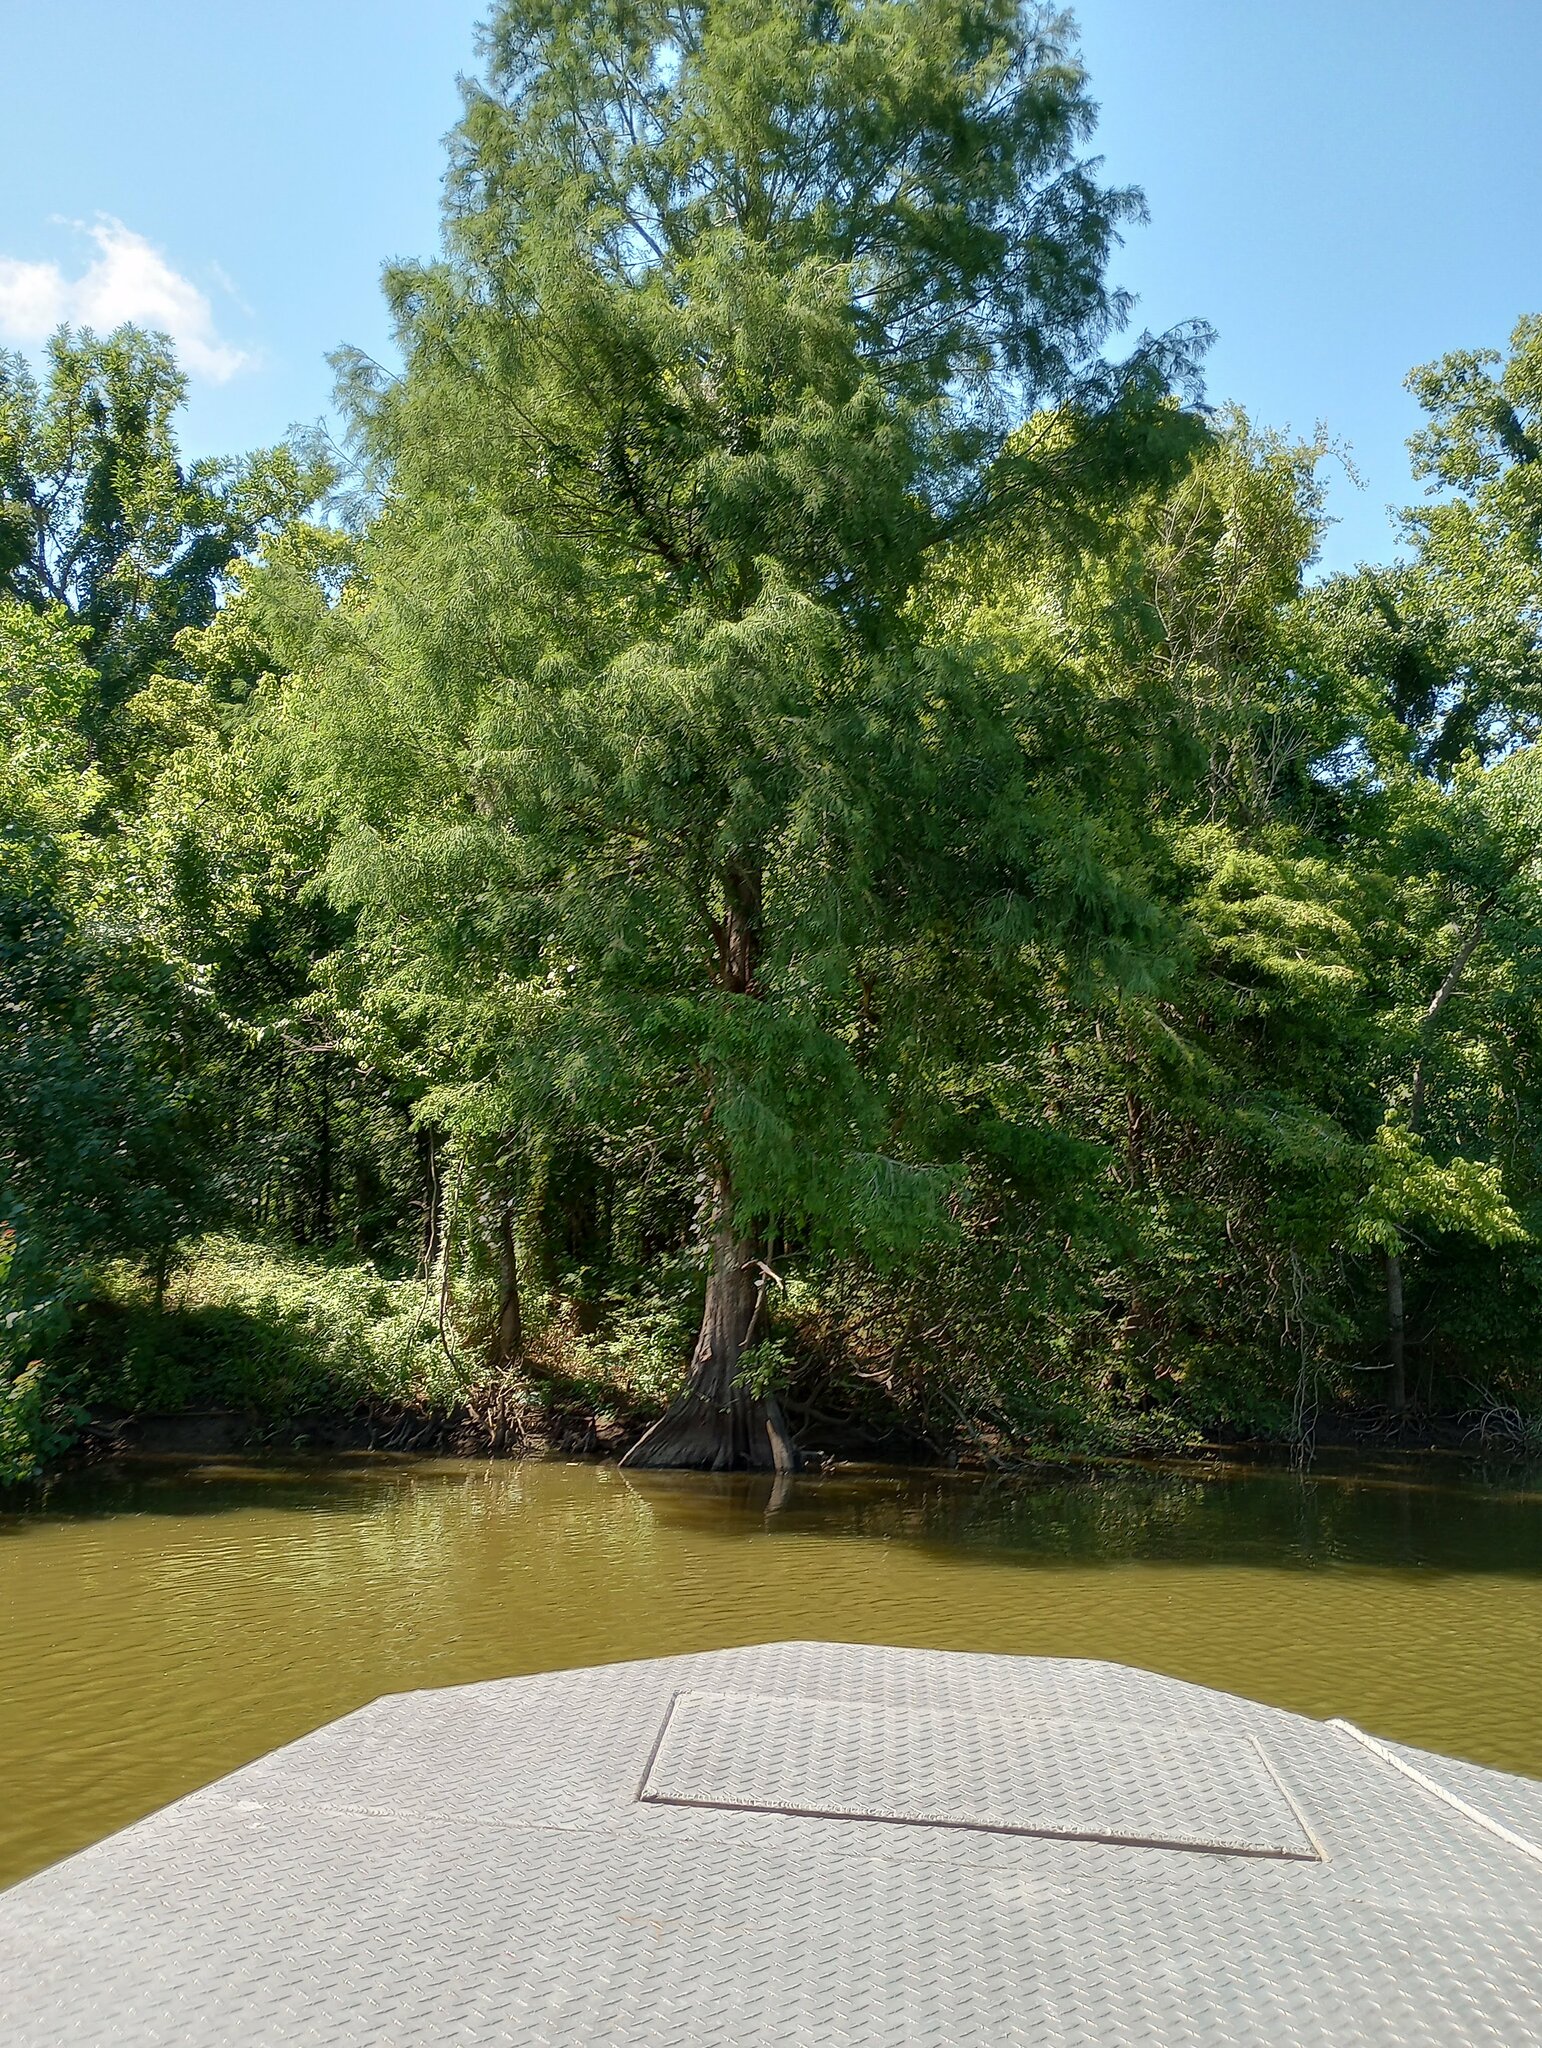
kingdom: Plantae
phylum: Tracheophyta
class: Pinopsida
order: Pinales
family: Cupressaceae
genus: Taxodium
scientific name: Taxodium distichum
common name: Bald cypress
